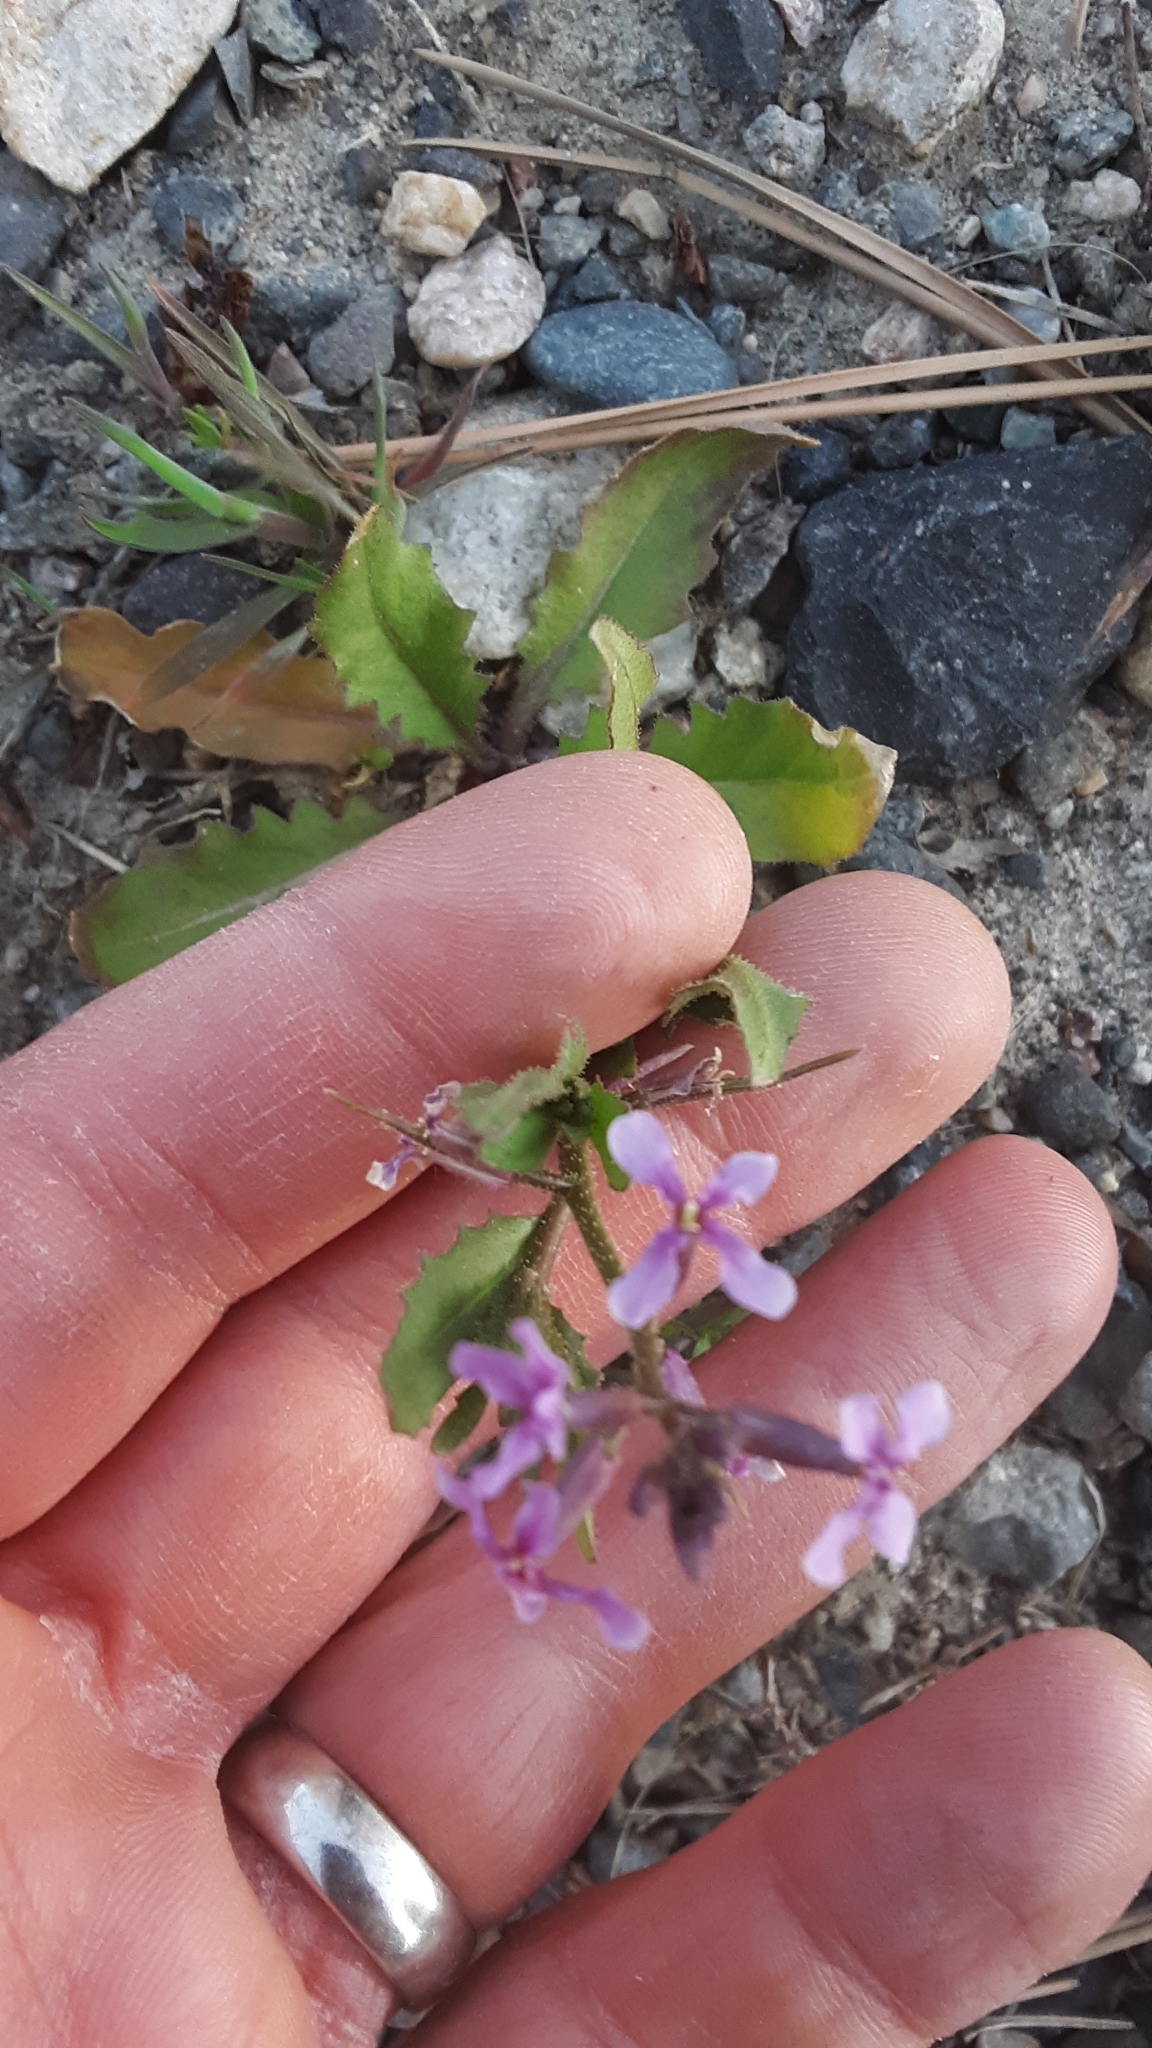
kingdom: Plantae
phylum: Tracheophyta
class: Magnoliopsida
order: Brassicales
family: Brassicaceae
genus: Chorispora
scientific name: Chorispora tenella
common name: Crossflower
